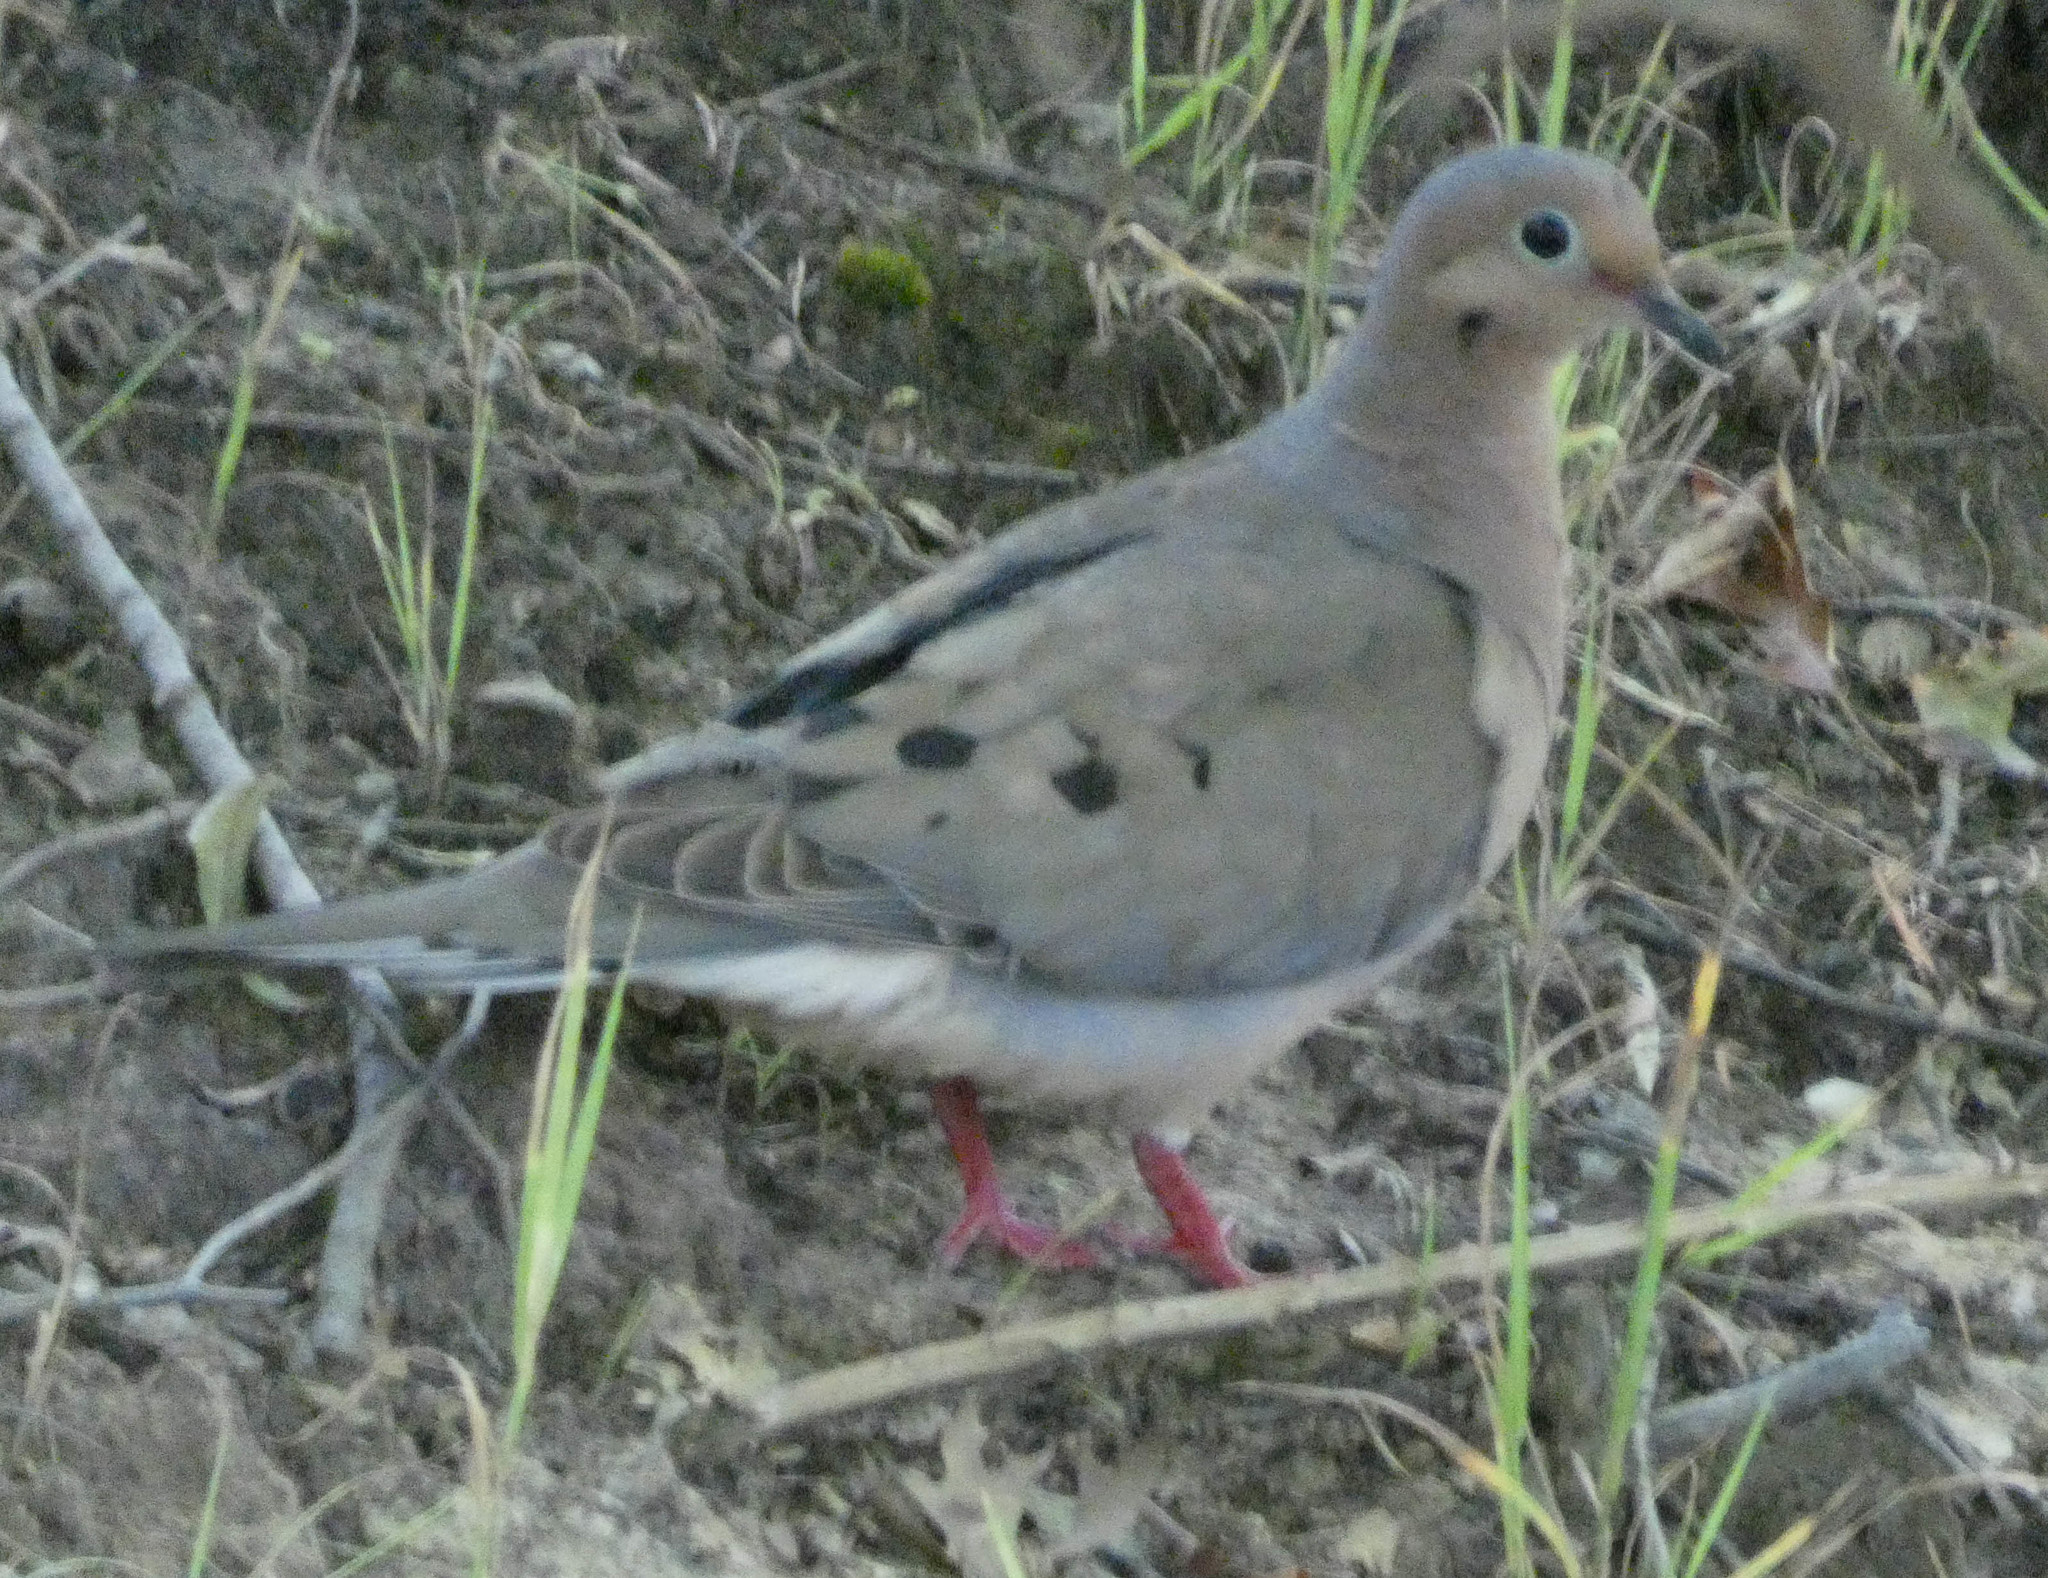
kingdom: Animalia
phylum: Chordata
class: Aves
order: Columbiformes
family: Columbidae
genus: Zenaida
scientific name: Zenaida macroura
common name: Mourning dove
